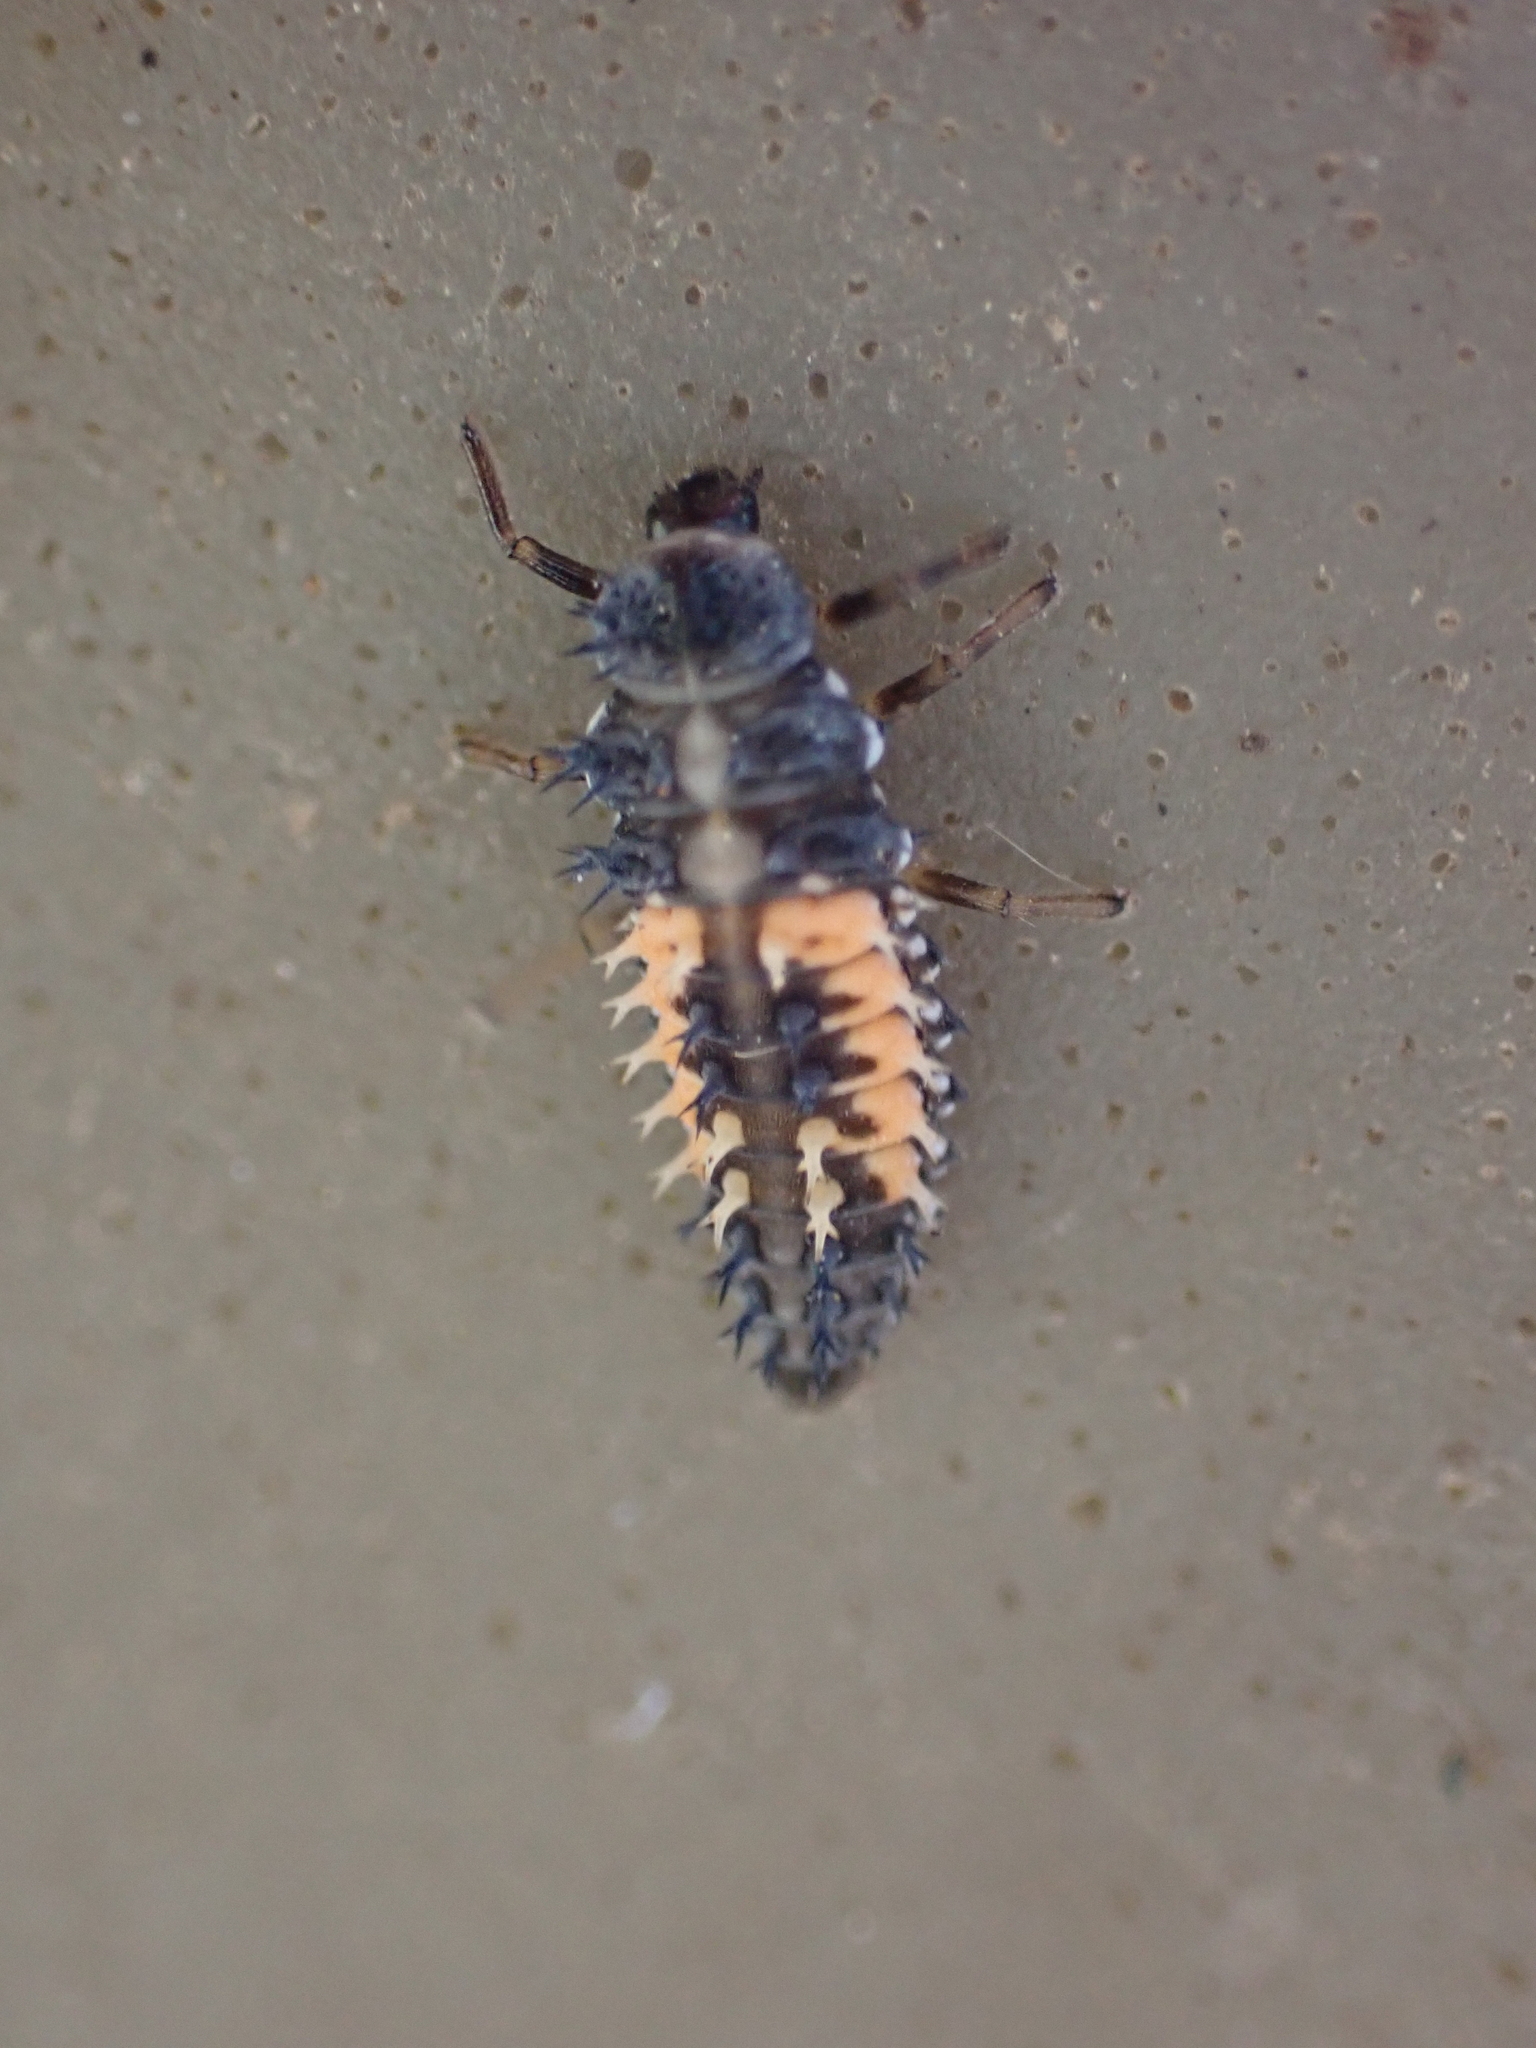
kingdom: Animalia
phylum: Arthropoda
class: Insecta
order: Coleoptera
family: Coccinellidae
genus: Harmonia
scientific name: Harmonia axyridis
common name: Harlequin ladybird
